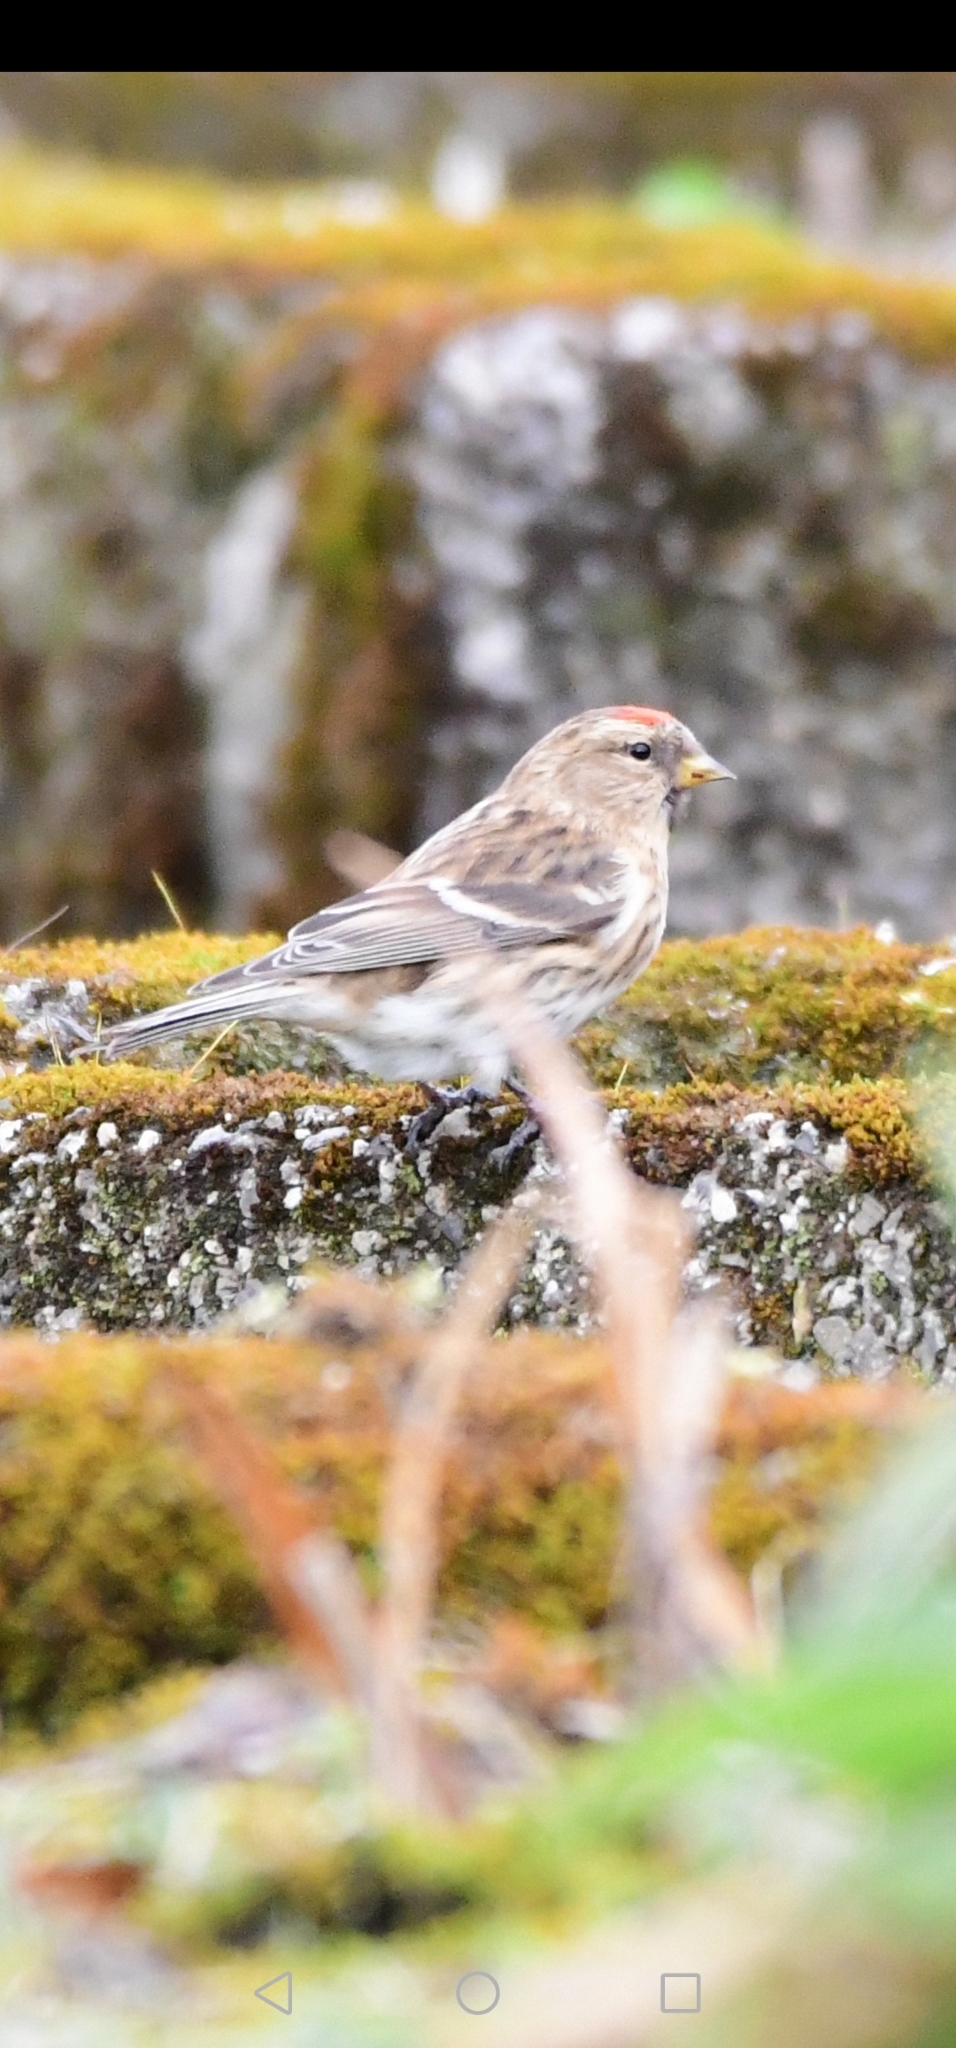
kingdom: Animalia
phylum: Chordata
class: Aves
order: Passeriformes
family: Fringillidae
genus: Acanthis
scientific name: Acanthis flammea
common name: Common redpoll
